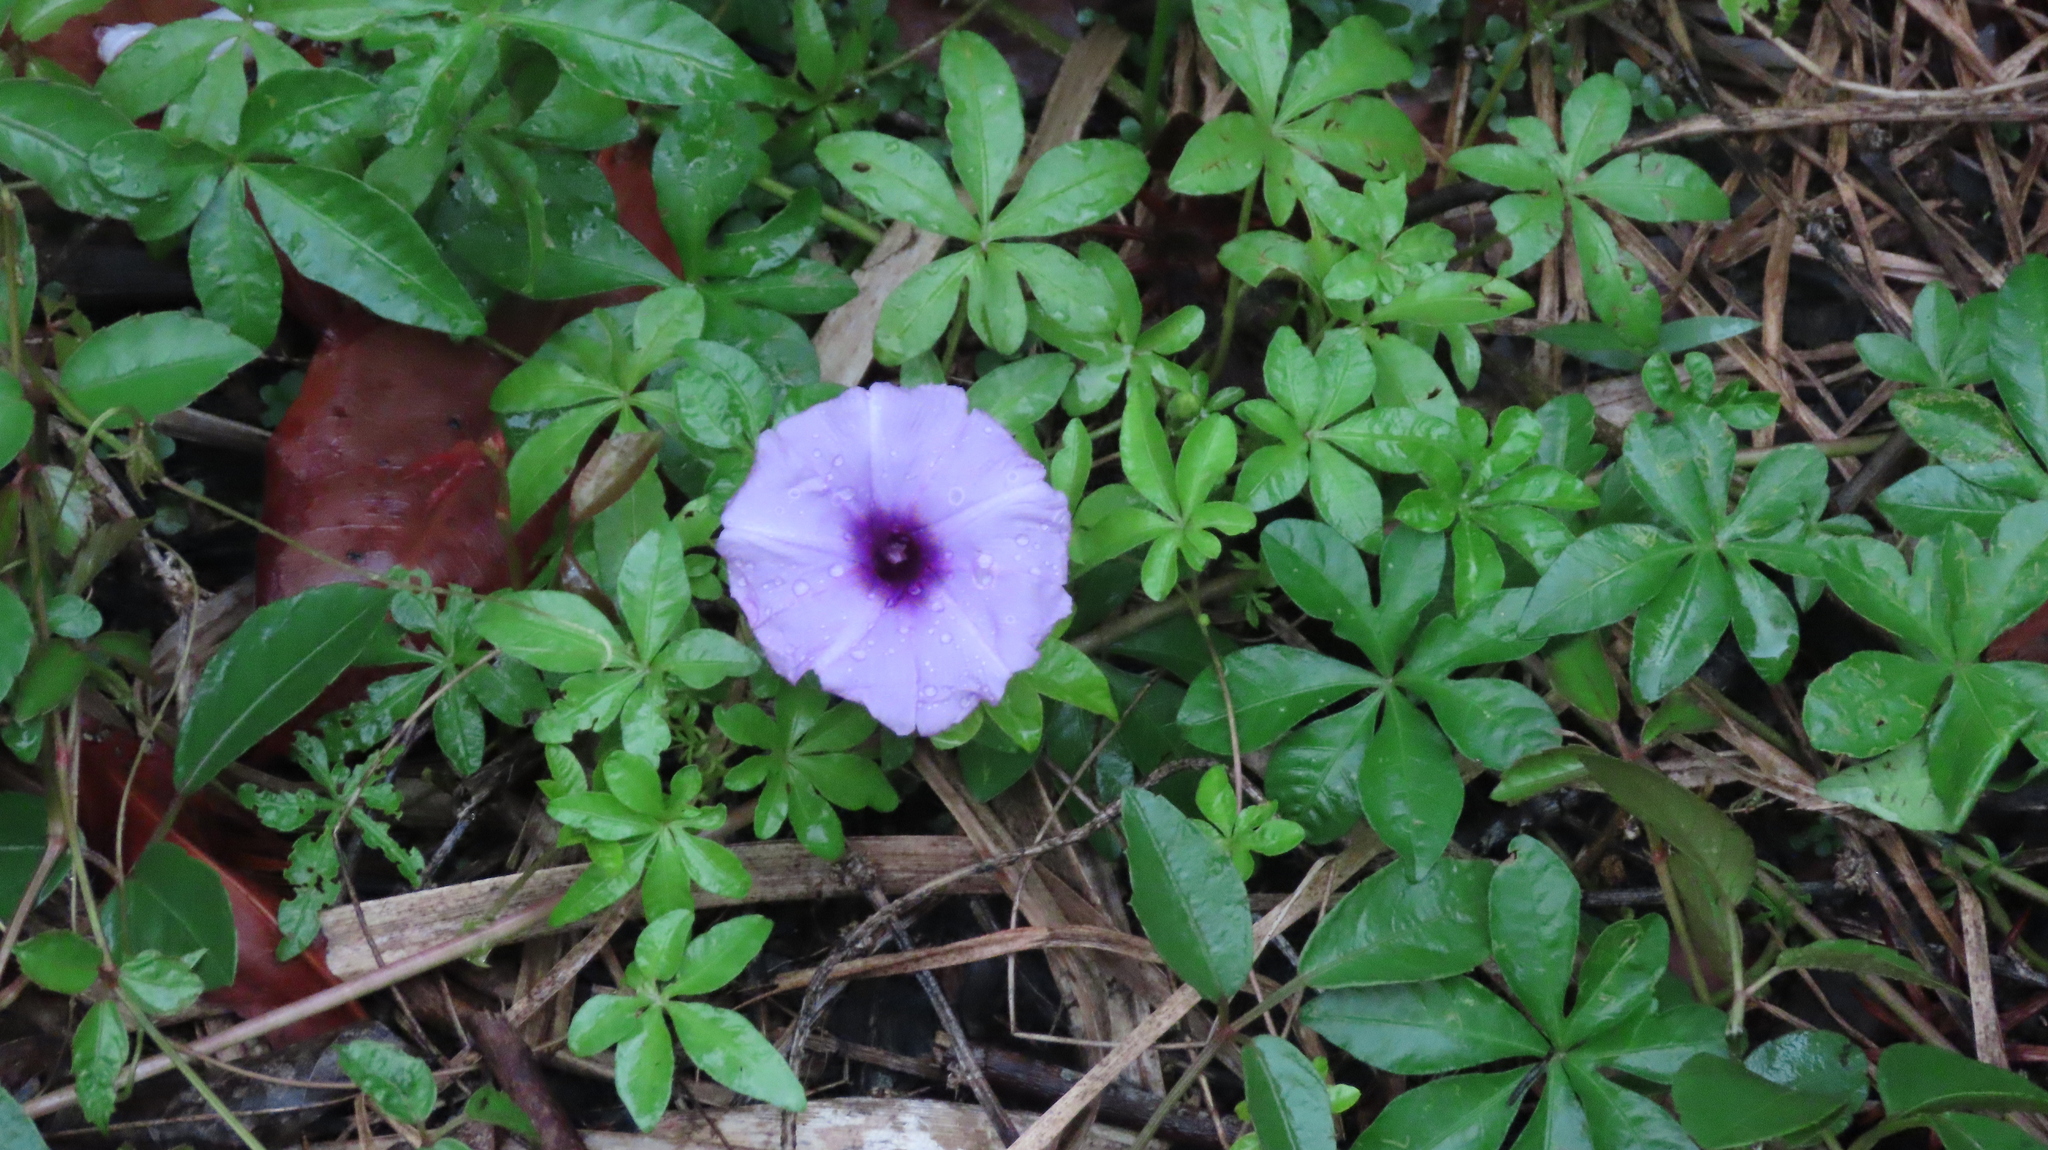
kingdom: Plantae
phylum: Tracheophyta
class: Magnoliopsida
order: Solanales
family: Convolvulaceae
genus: Ipomoea
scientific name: Ipomoea cairica
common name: Mile a minute vine
